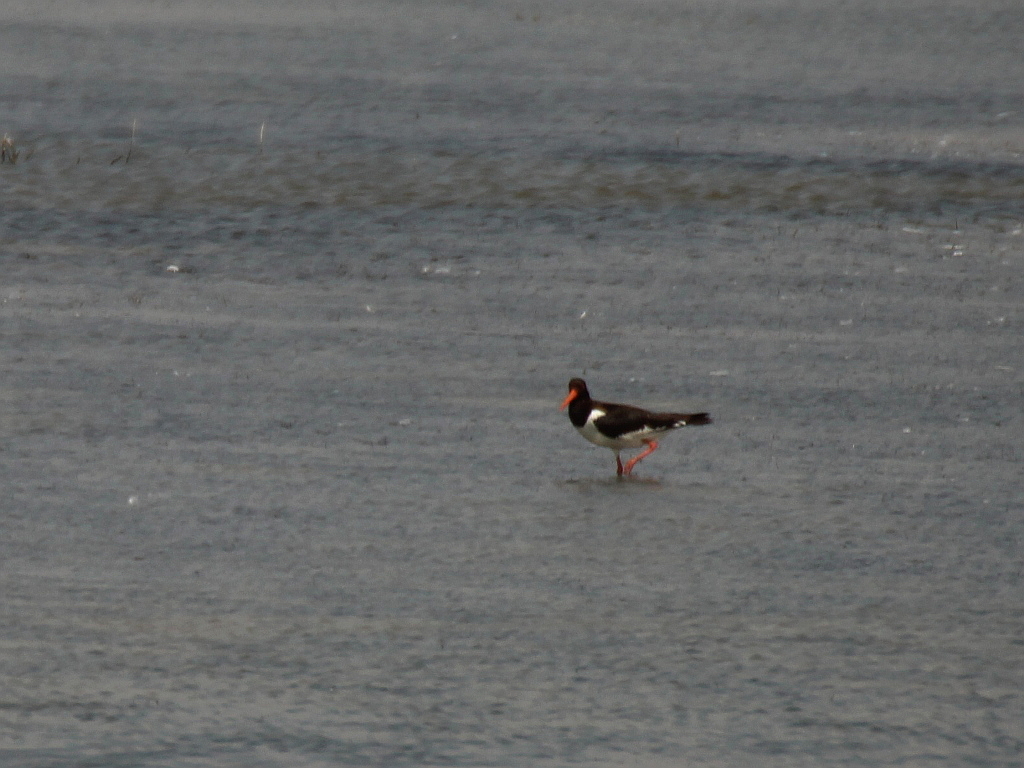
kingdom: Animalia
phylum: Chordata
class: Aves
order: Charadriiformes
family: Haematopodidae
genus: Haematopus
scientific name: Haematopus ostralegus
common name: Eurasian oystercatcher
